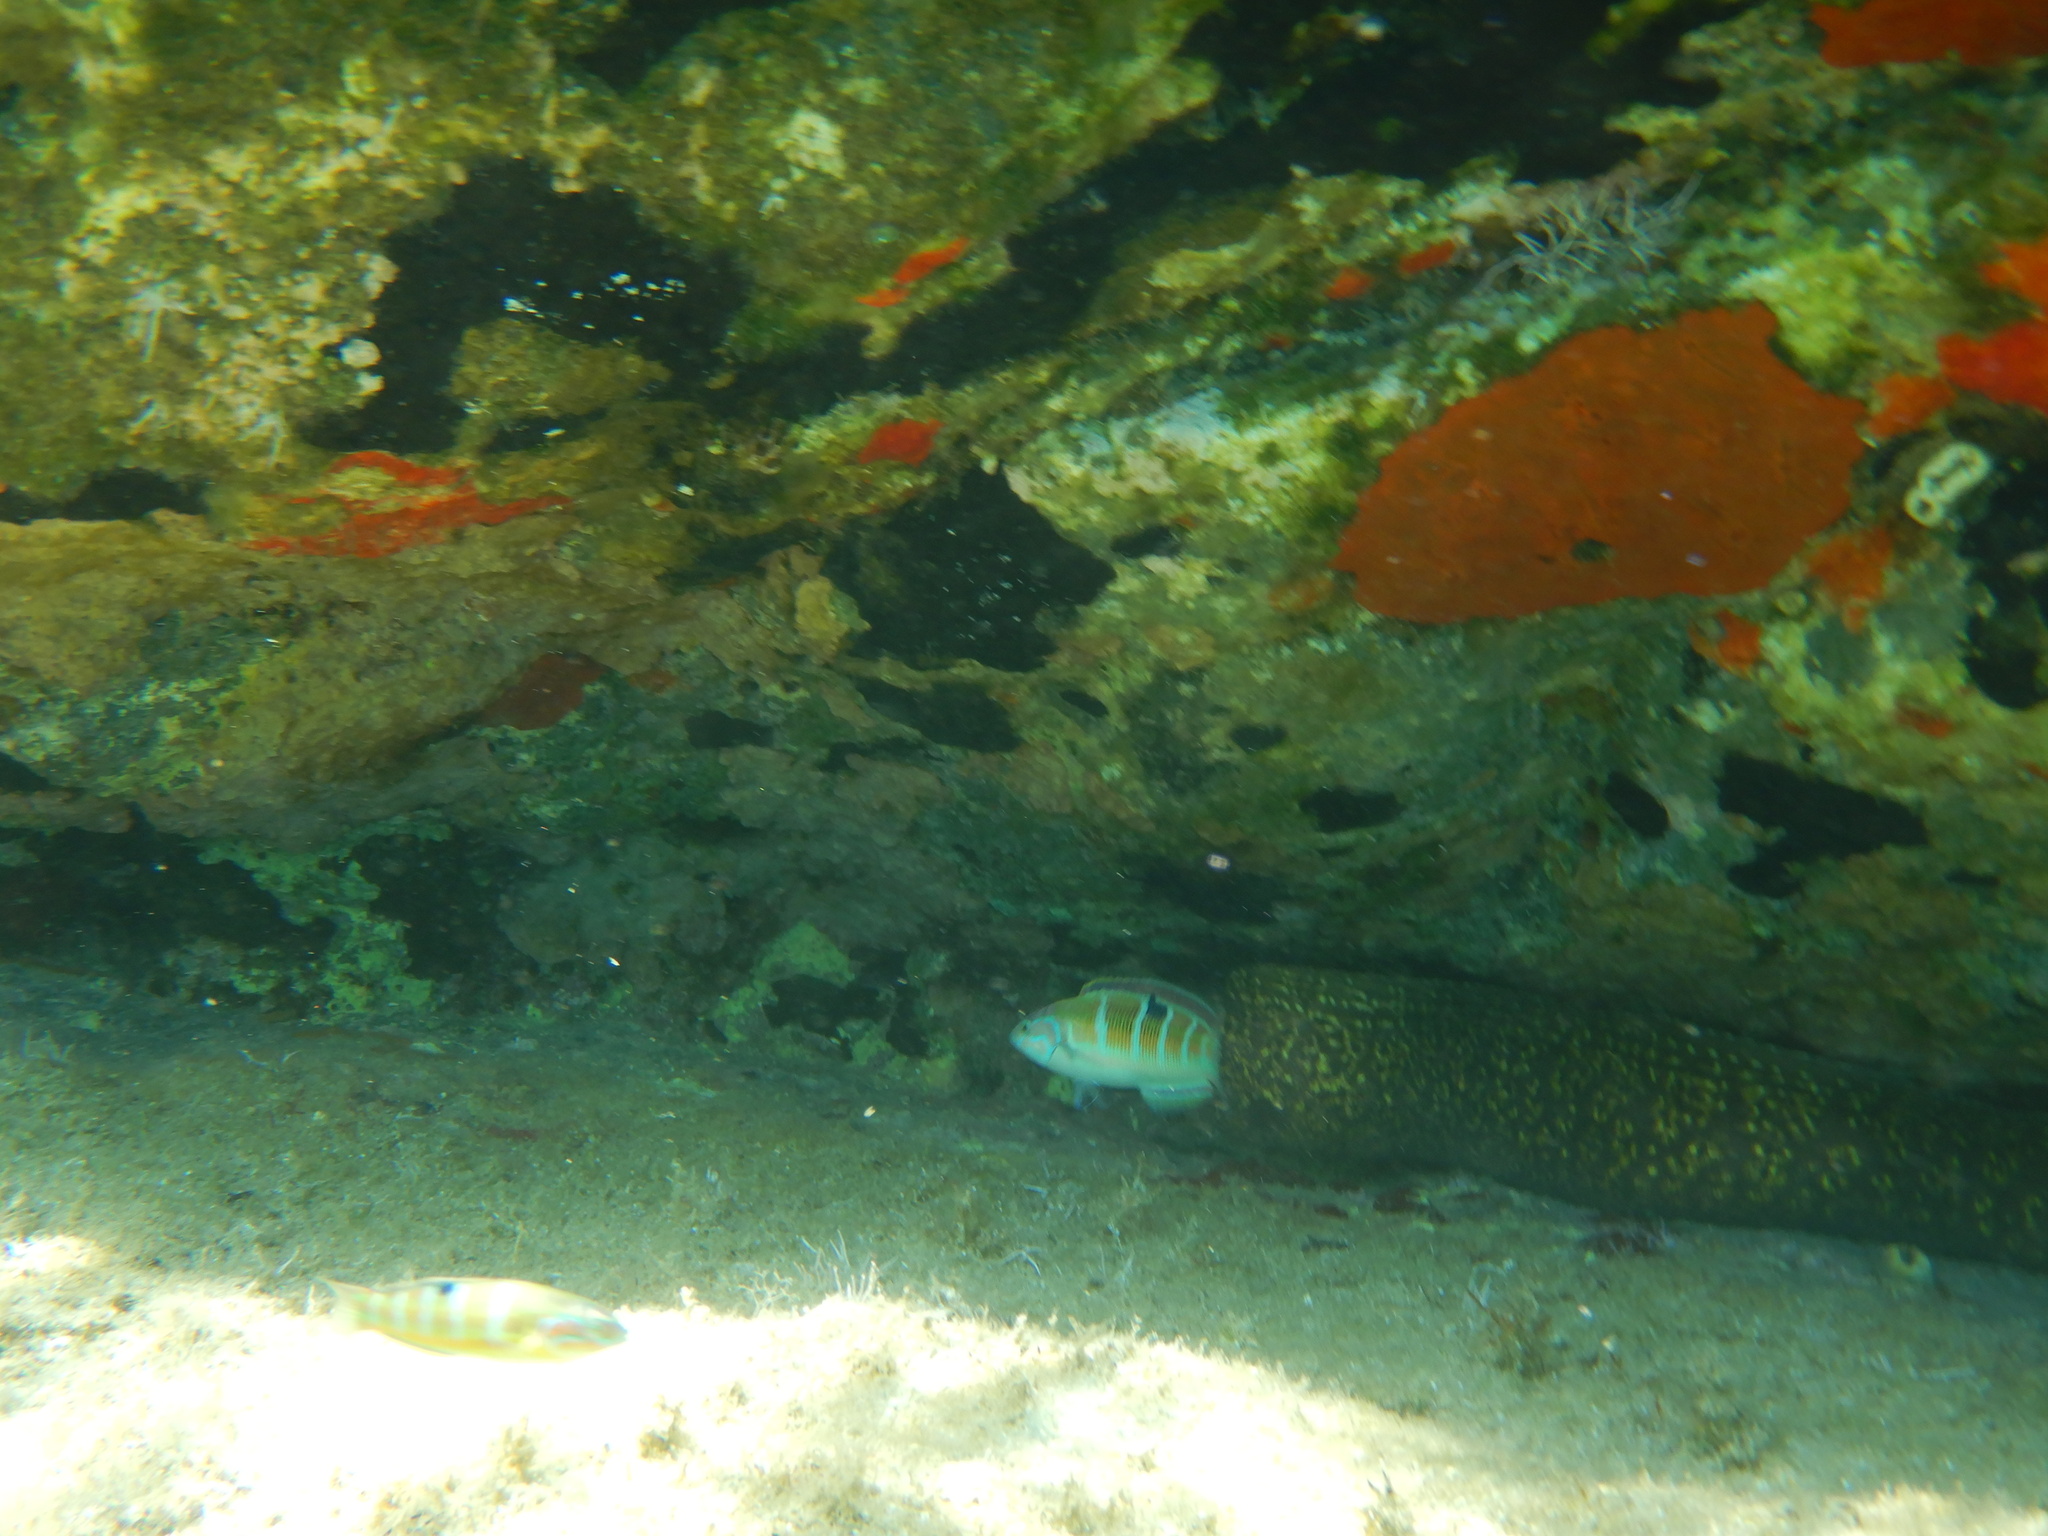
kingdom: Animalia
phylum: Chordata
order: Perciformes
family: Labridae
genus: Thalassoma
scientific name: Thalassoma pavo
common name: Ornate wrasse
